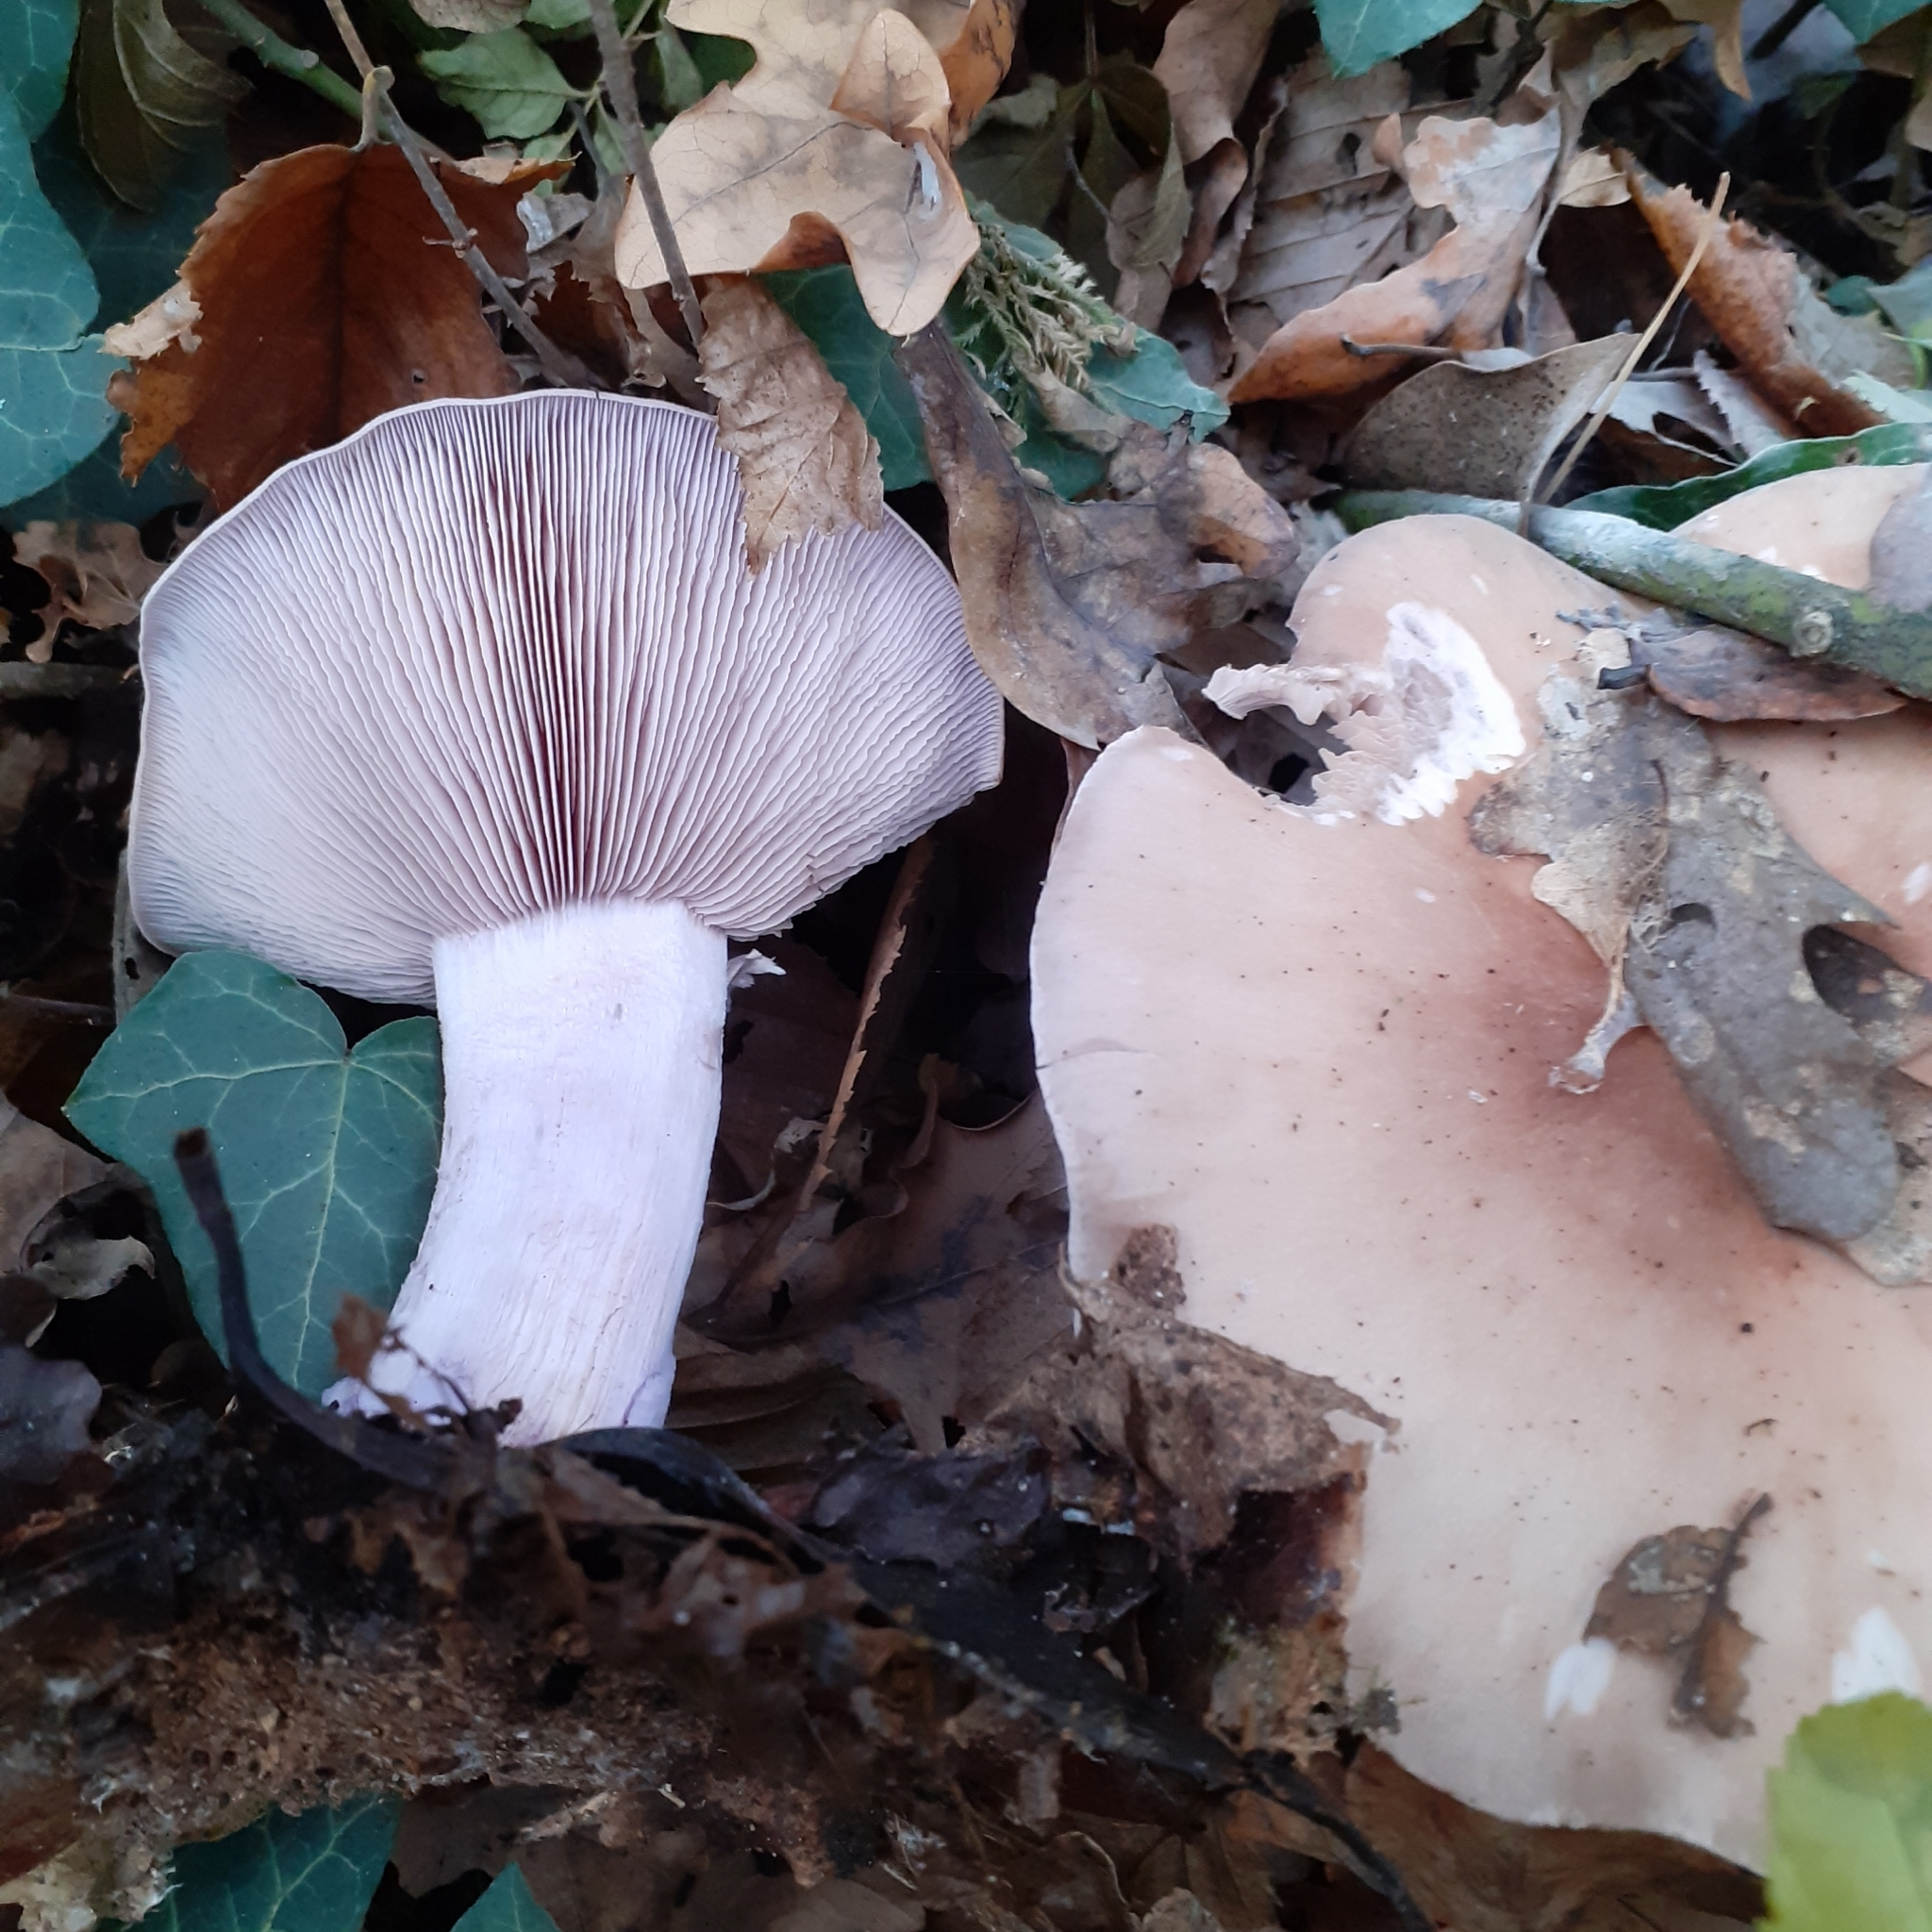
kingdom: Fungi
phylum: Basidiomycota
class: Agaricomycetes
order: Agaricales
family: Tricholomataceae
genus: Collybia
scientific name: Collybia
